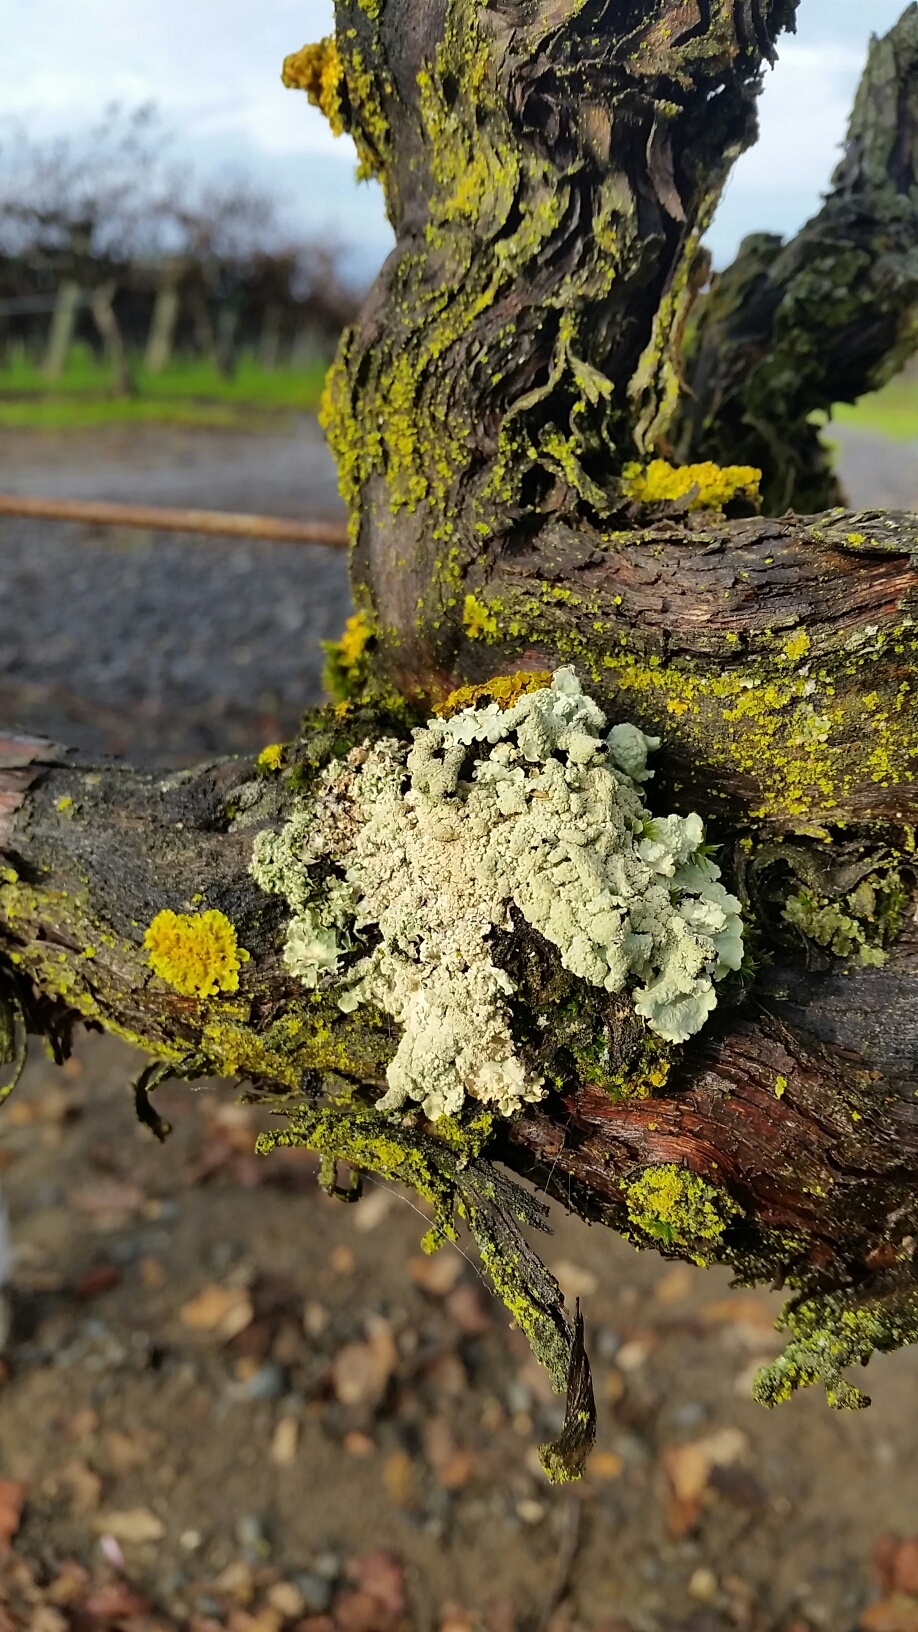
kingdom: Fungi
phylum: Ascomycota
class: Lecanoromycetes
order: Lecanorales
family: Parmeliaceae
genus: Flavoparmelia
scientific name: Flavoparmelia caperata
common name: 40-mile per hour lichen
